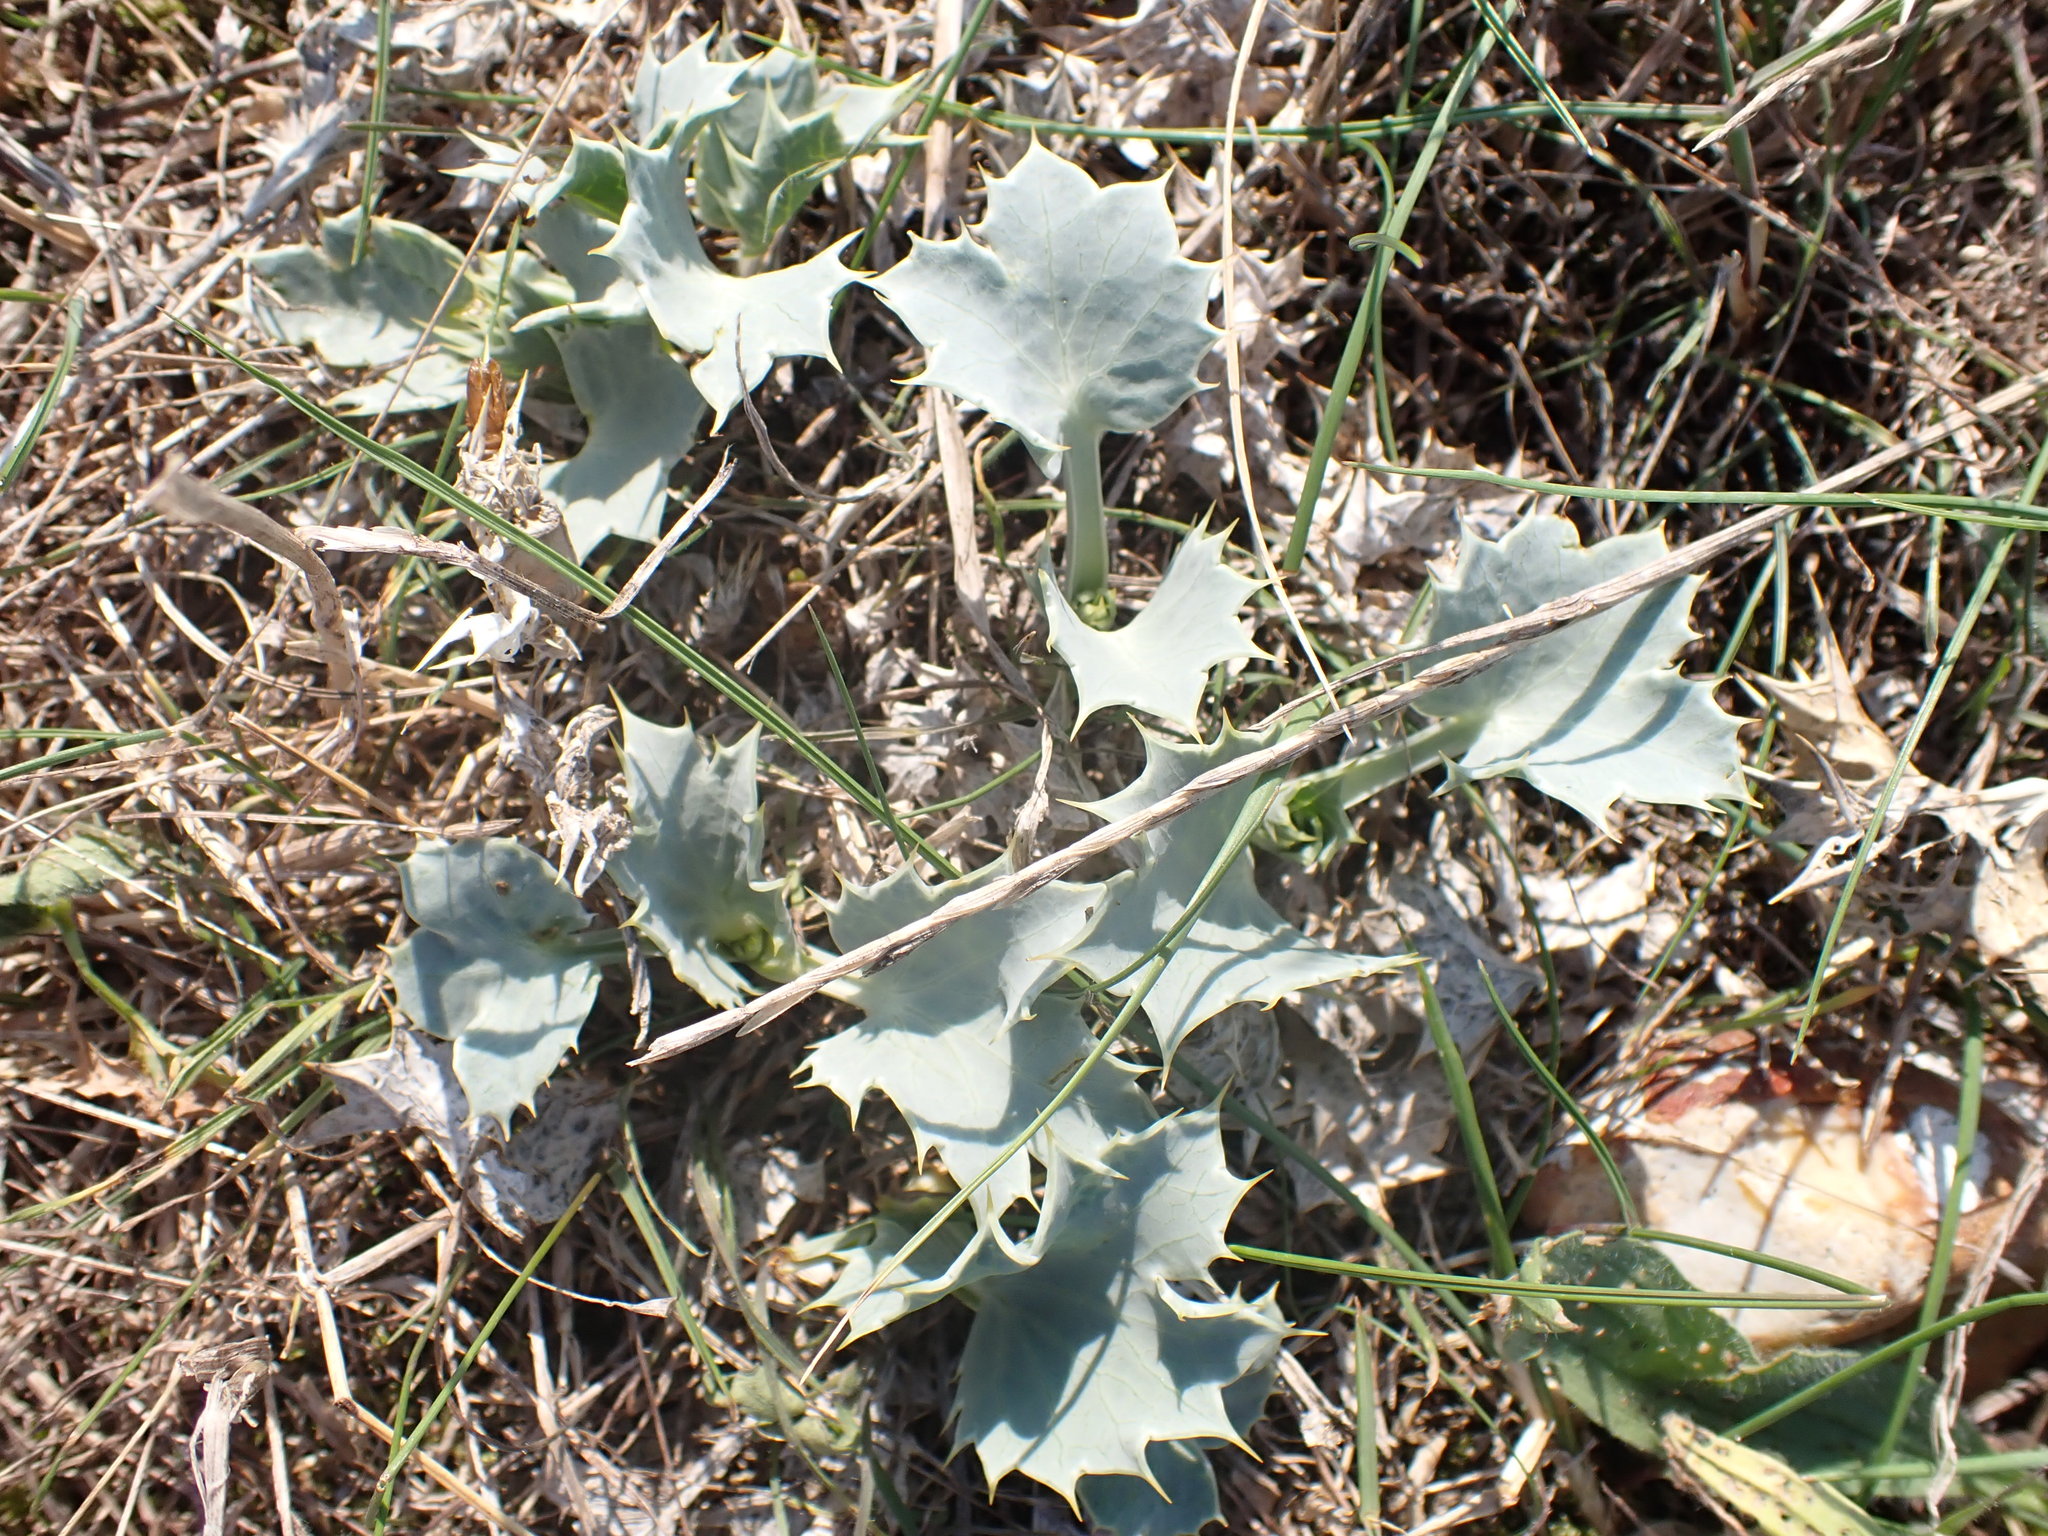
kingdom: Plantae
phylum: Tracheophyta
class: Magnoliopsida
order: Apiales
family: Apiaceae
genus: Eryngium
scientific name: Eryngium maritimum
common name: Sea-holly
